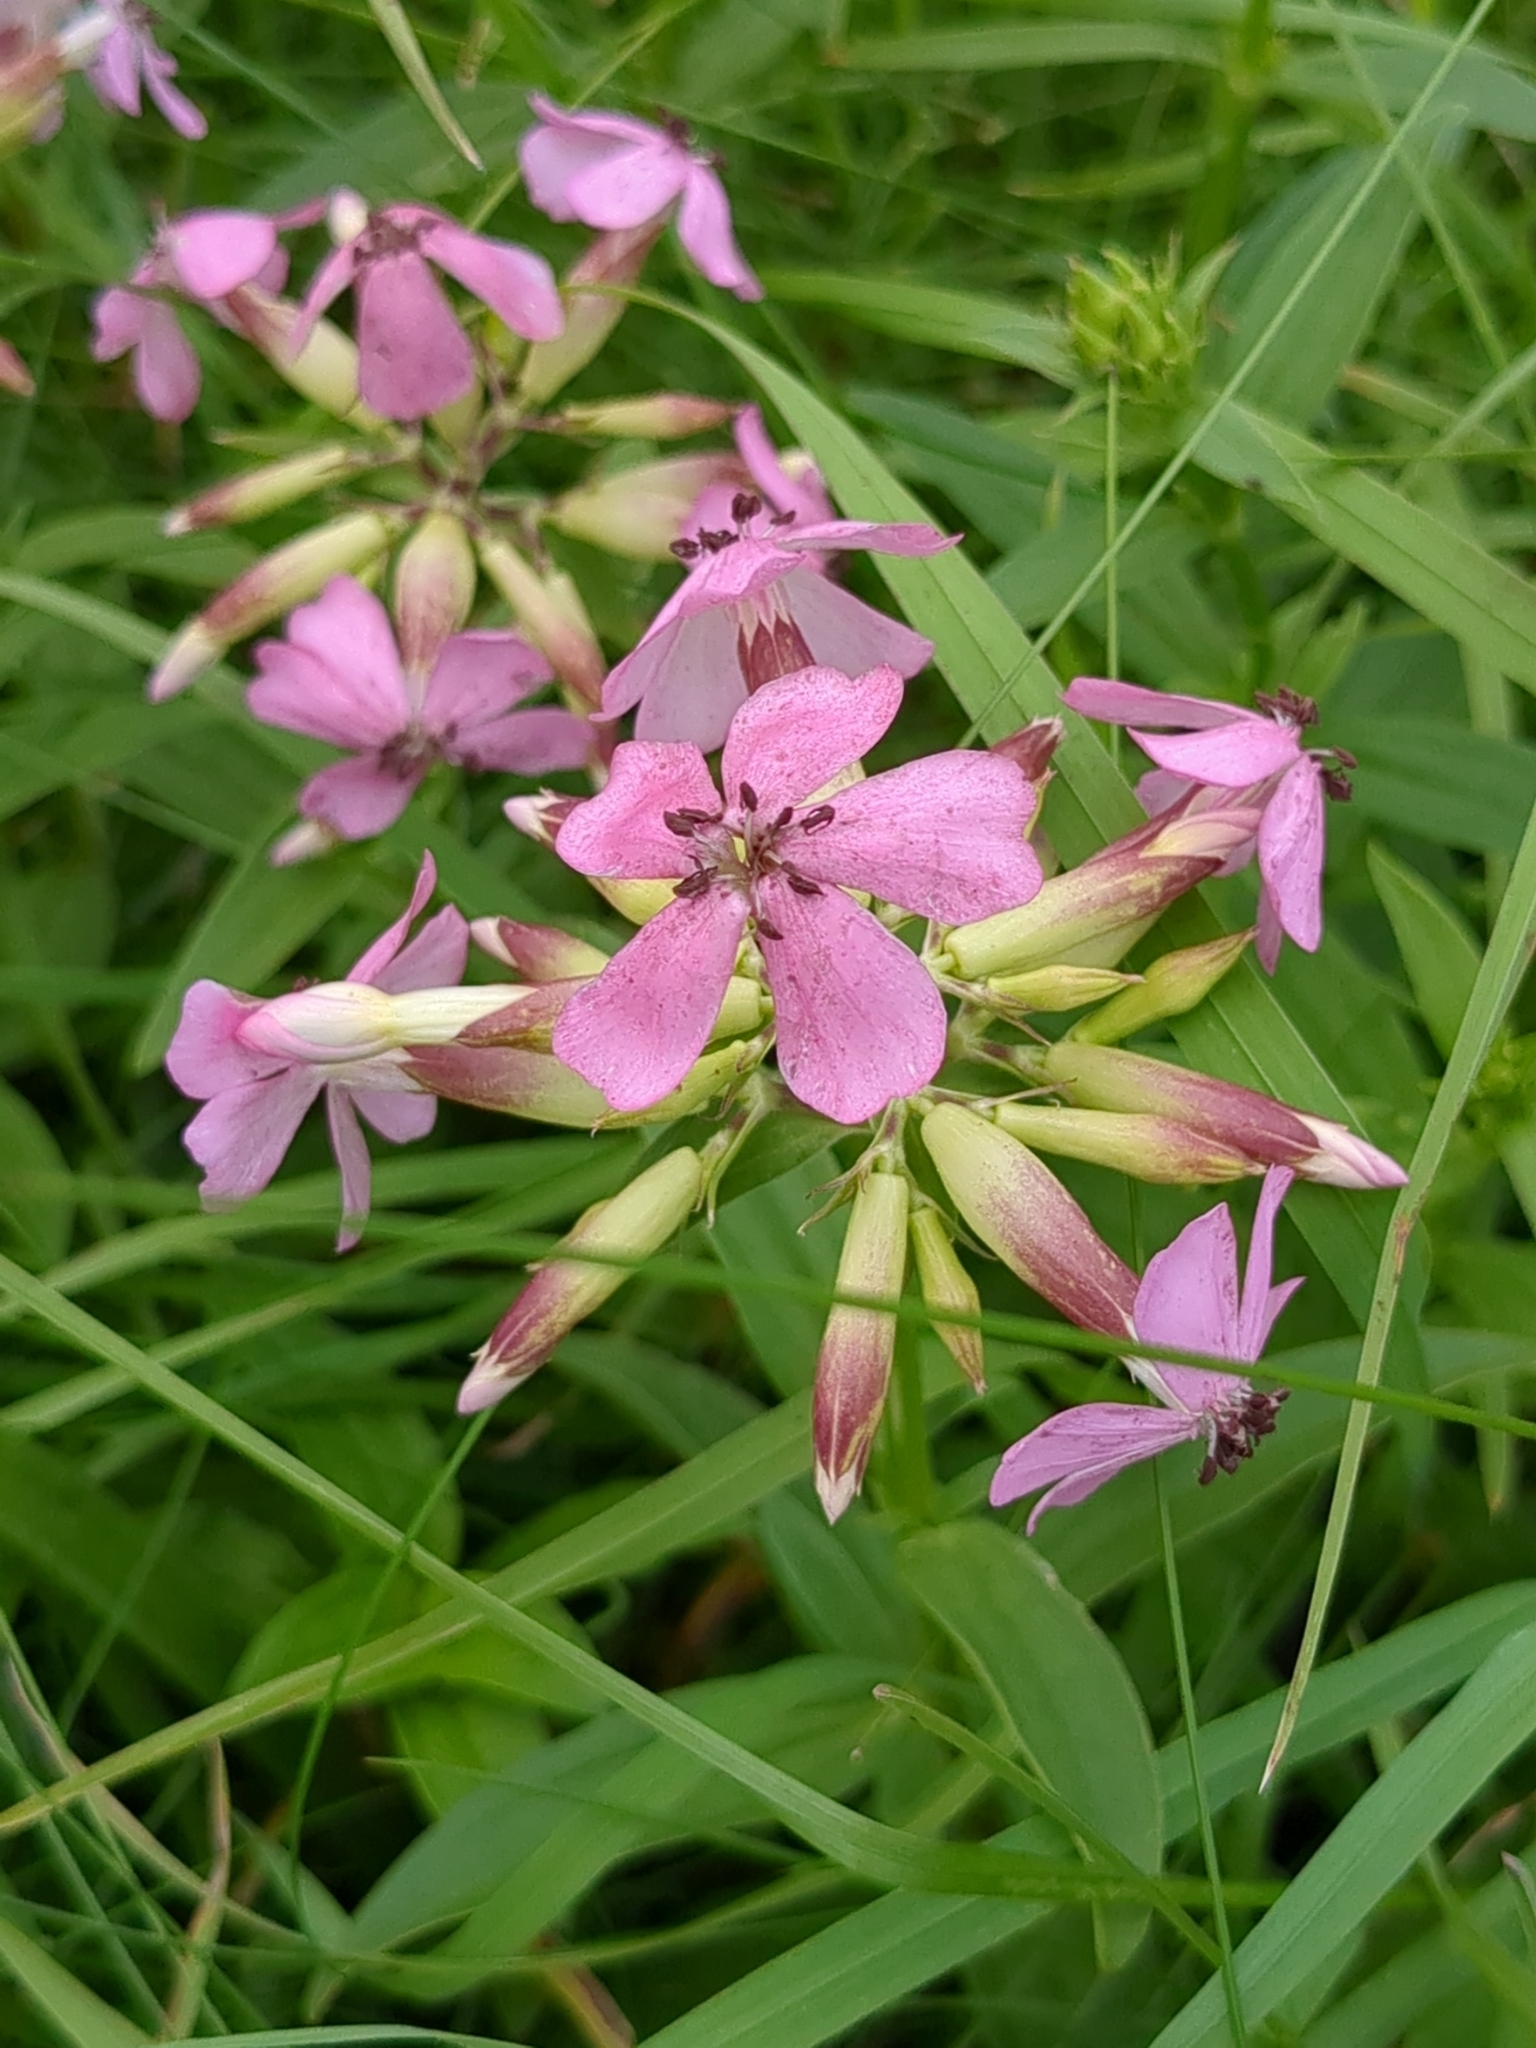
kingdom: Plantae
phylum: Tracheophyta
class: Magnoliopsida
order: Caryophyllales
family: Caryophyllaceae
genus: Saponaria
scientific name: Saponaria officinalis
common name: Soapwort
